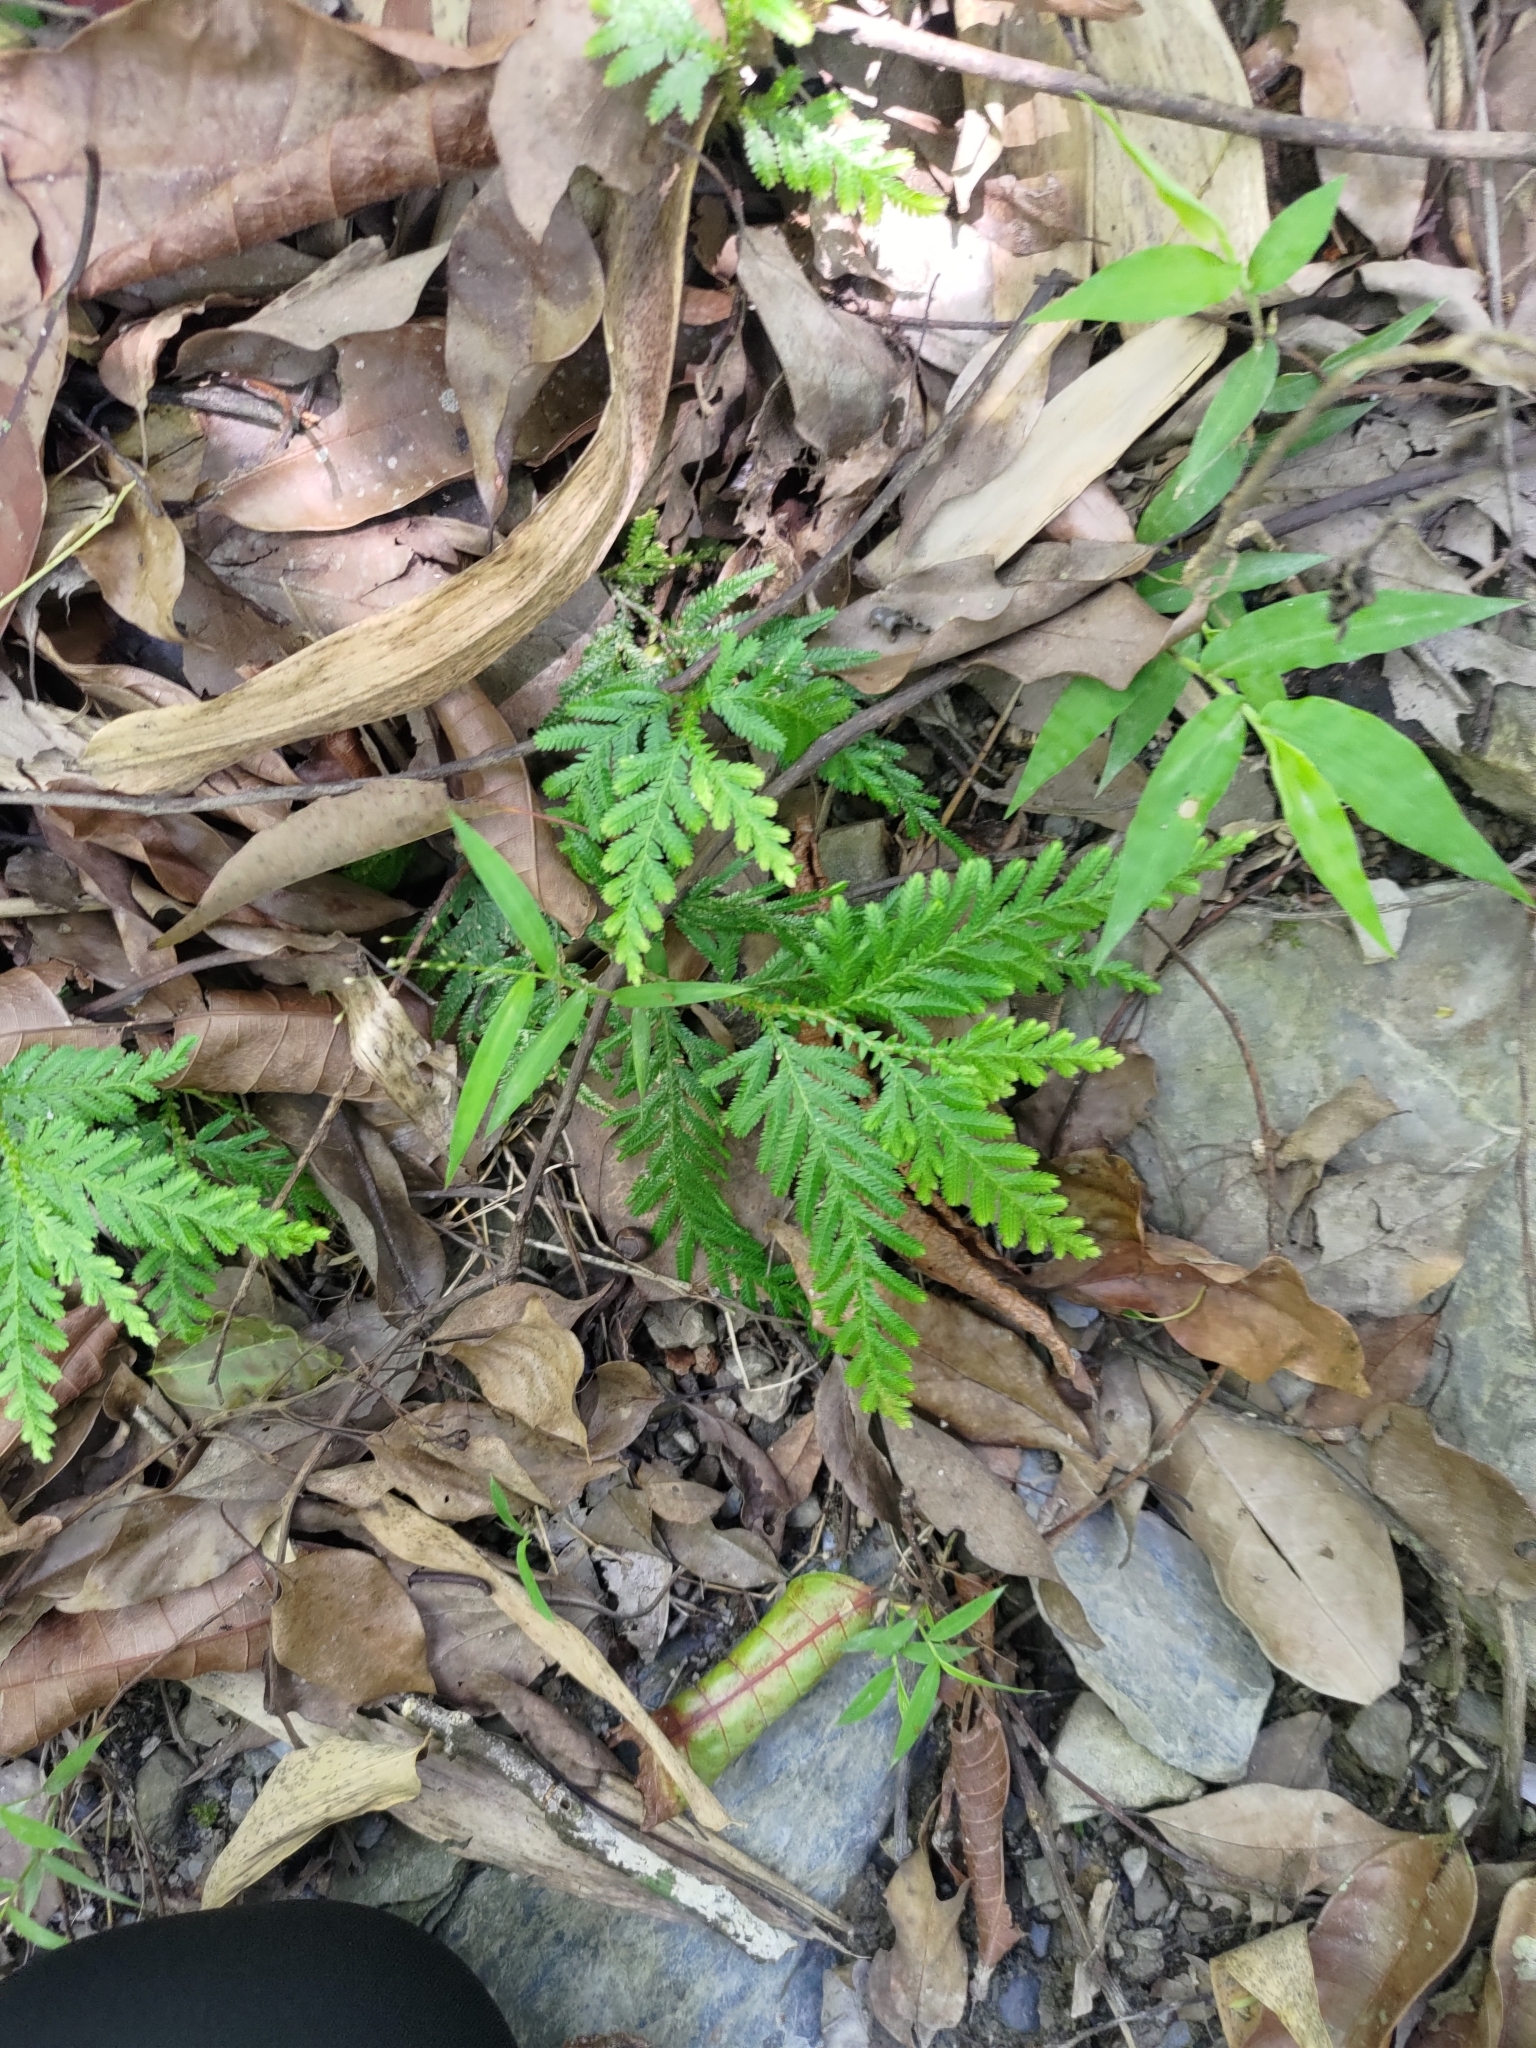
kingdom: Plantae
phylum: Tracheophyta
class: Lycopodiopsida
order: Selaginellales
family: Selaginellaceae
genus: Selaginella
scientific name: Selaginella delicatula
